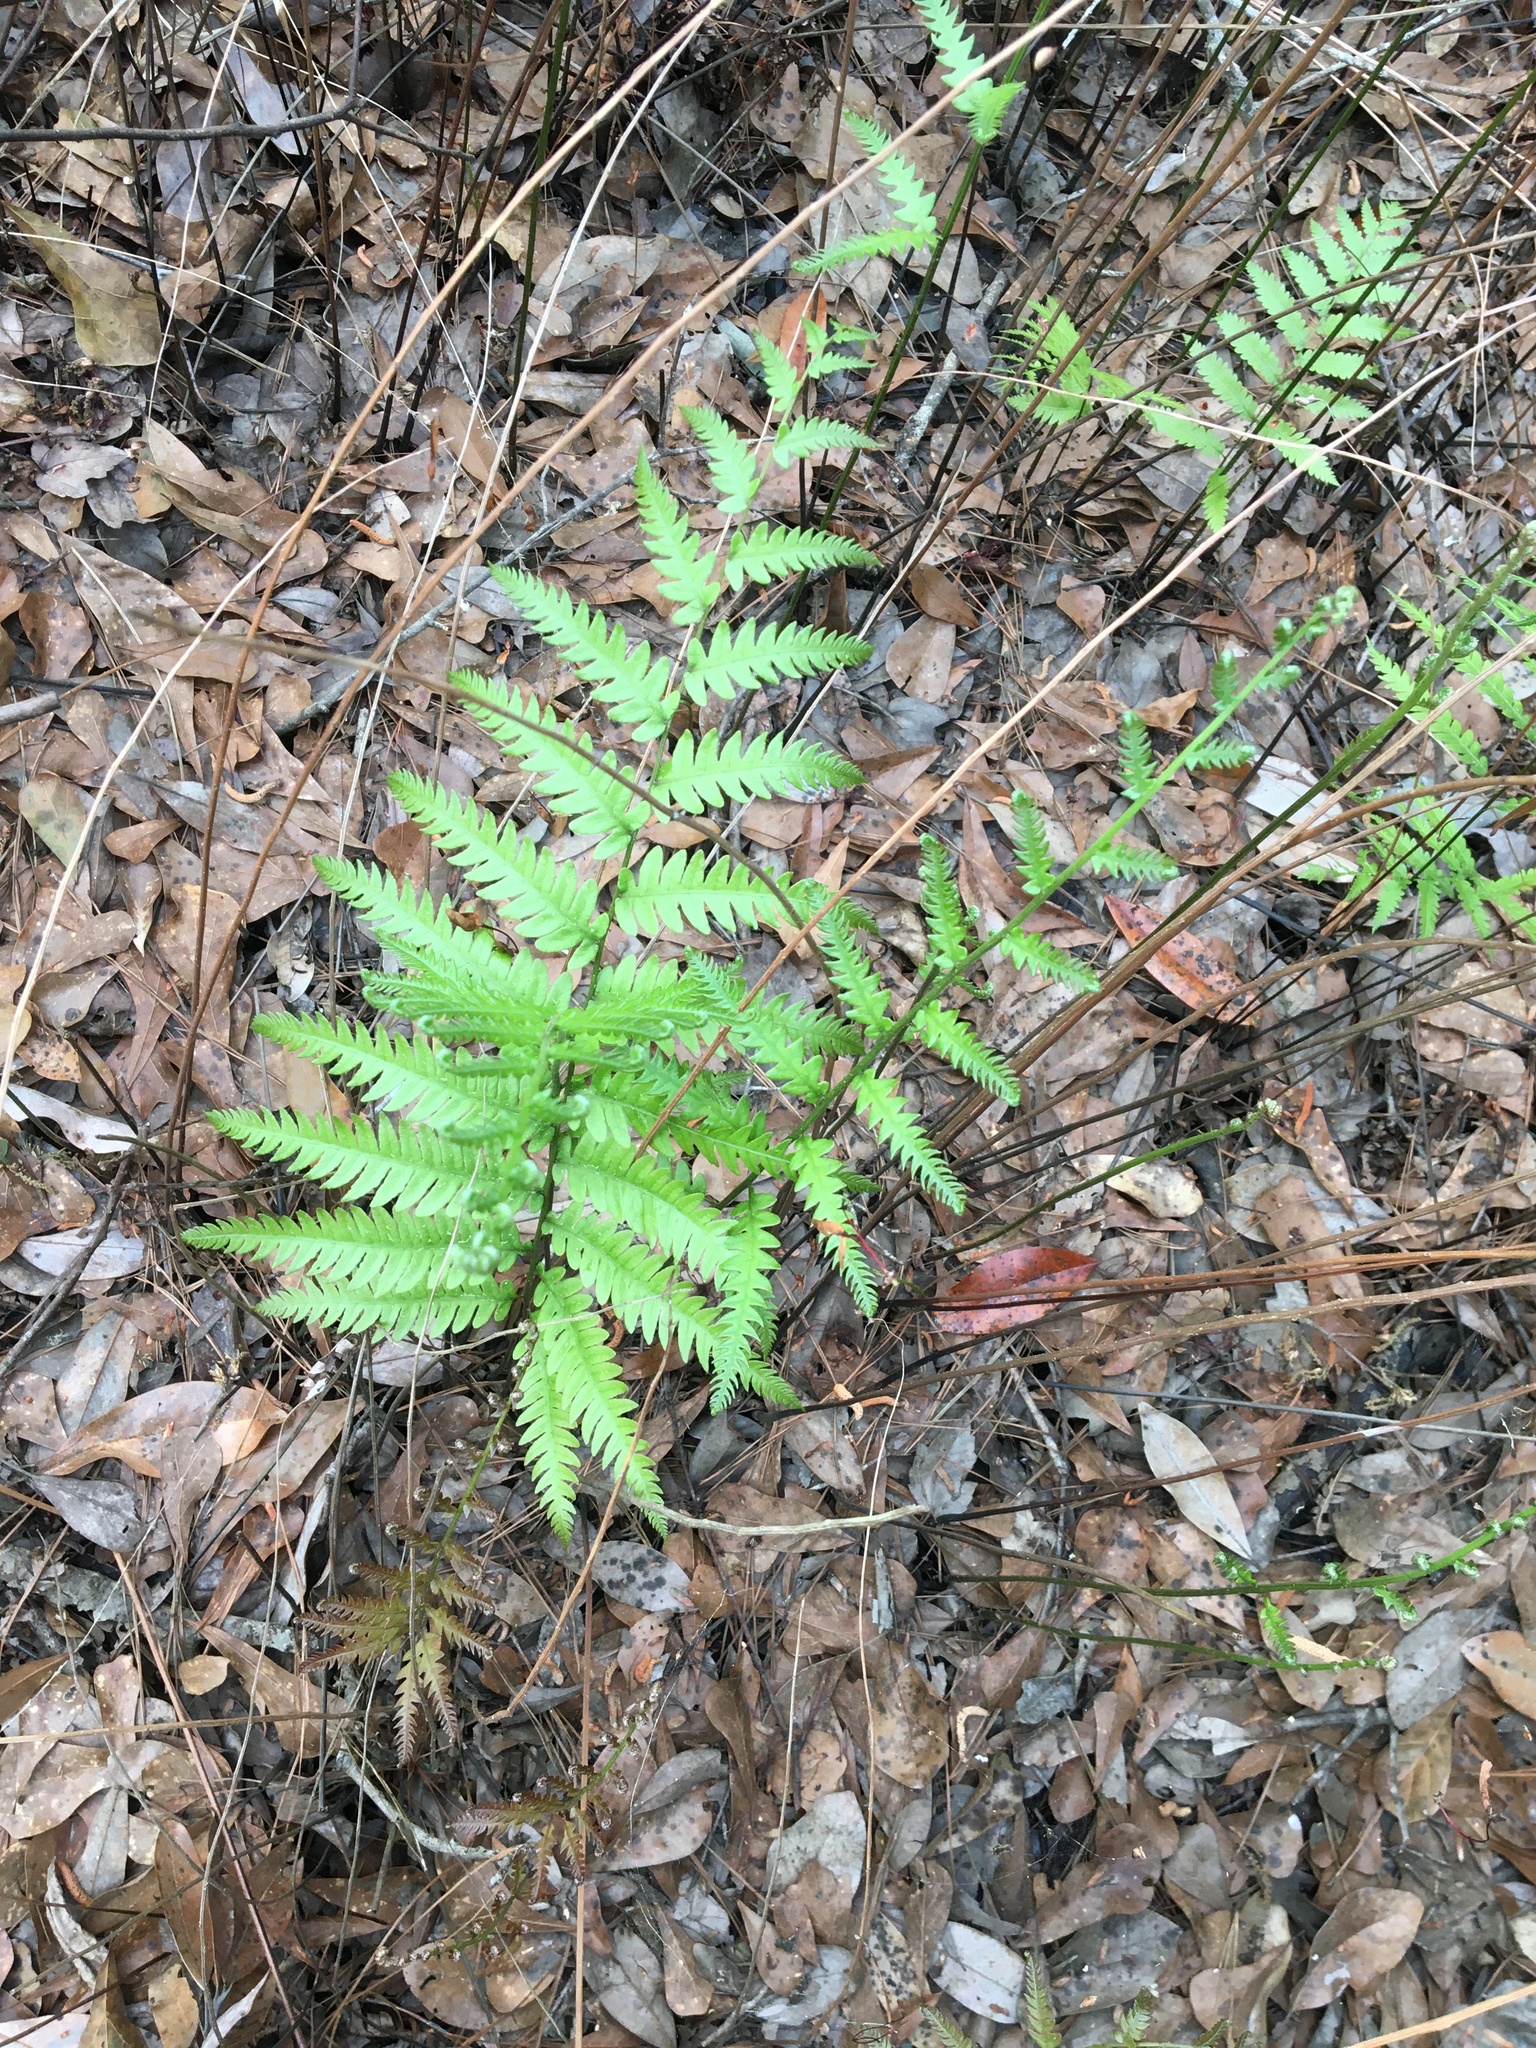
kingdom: Plantae
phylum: Tracheophyta
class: Polypodiopsida
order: Polypodiales
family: Blechnaceae
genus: Anchistea
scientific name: Anchistea virginica
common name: Virginia chain fern
